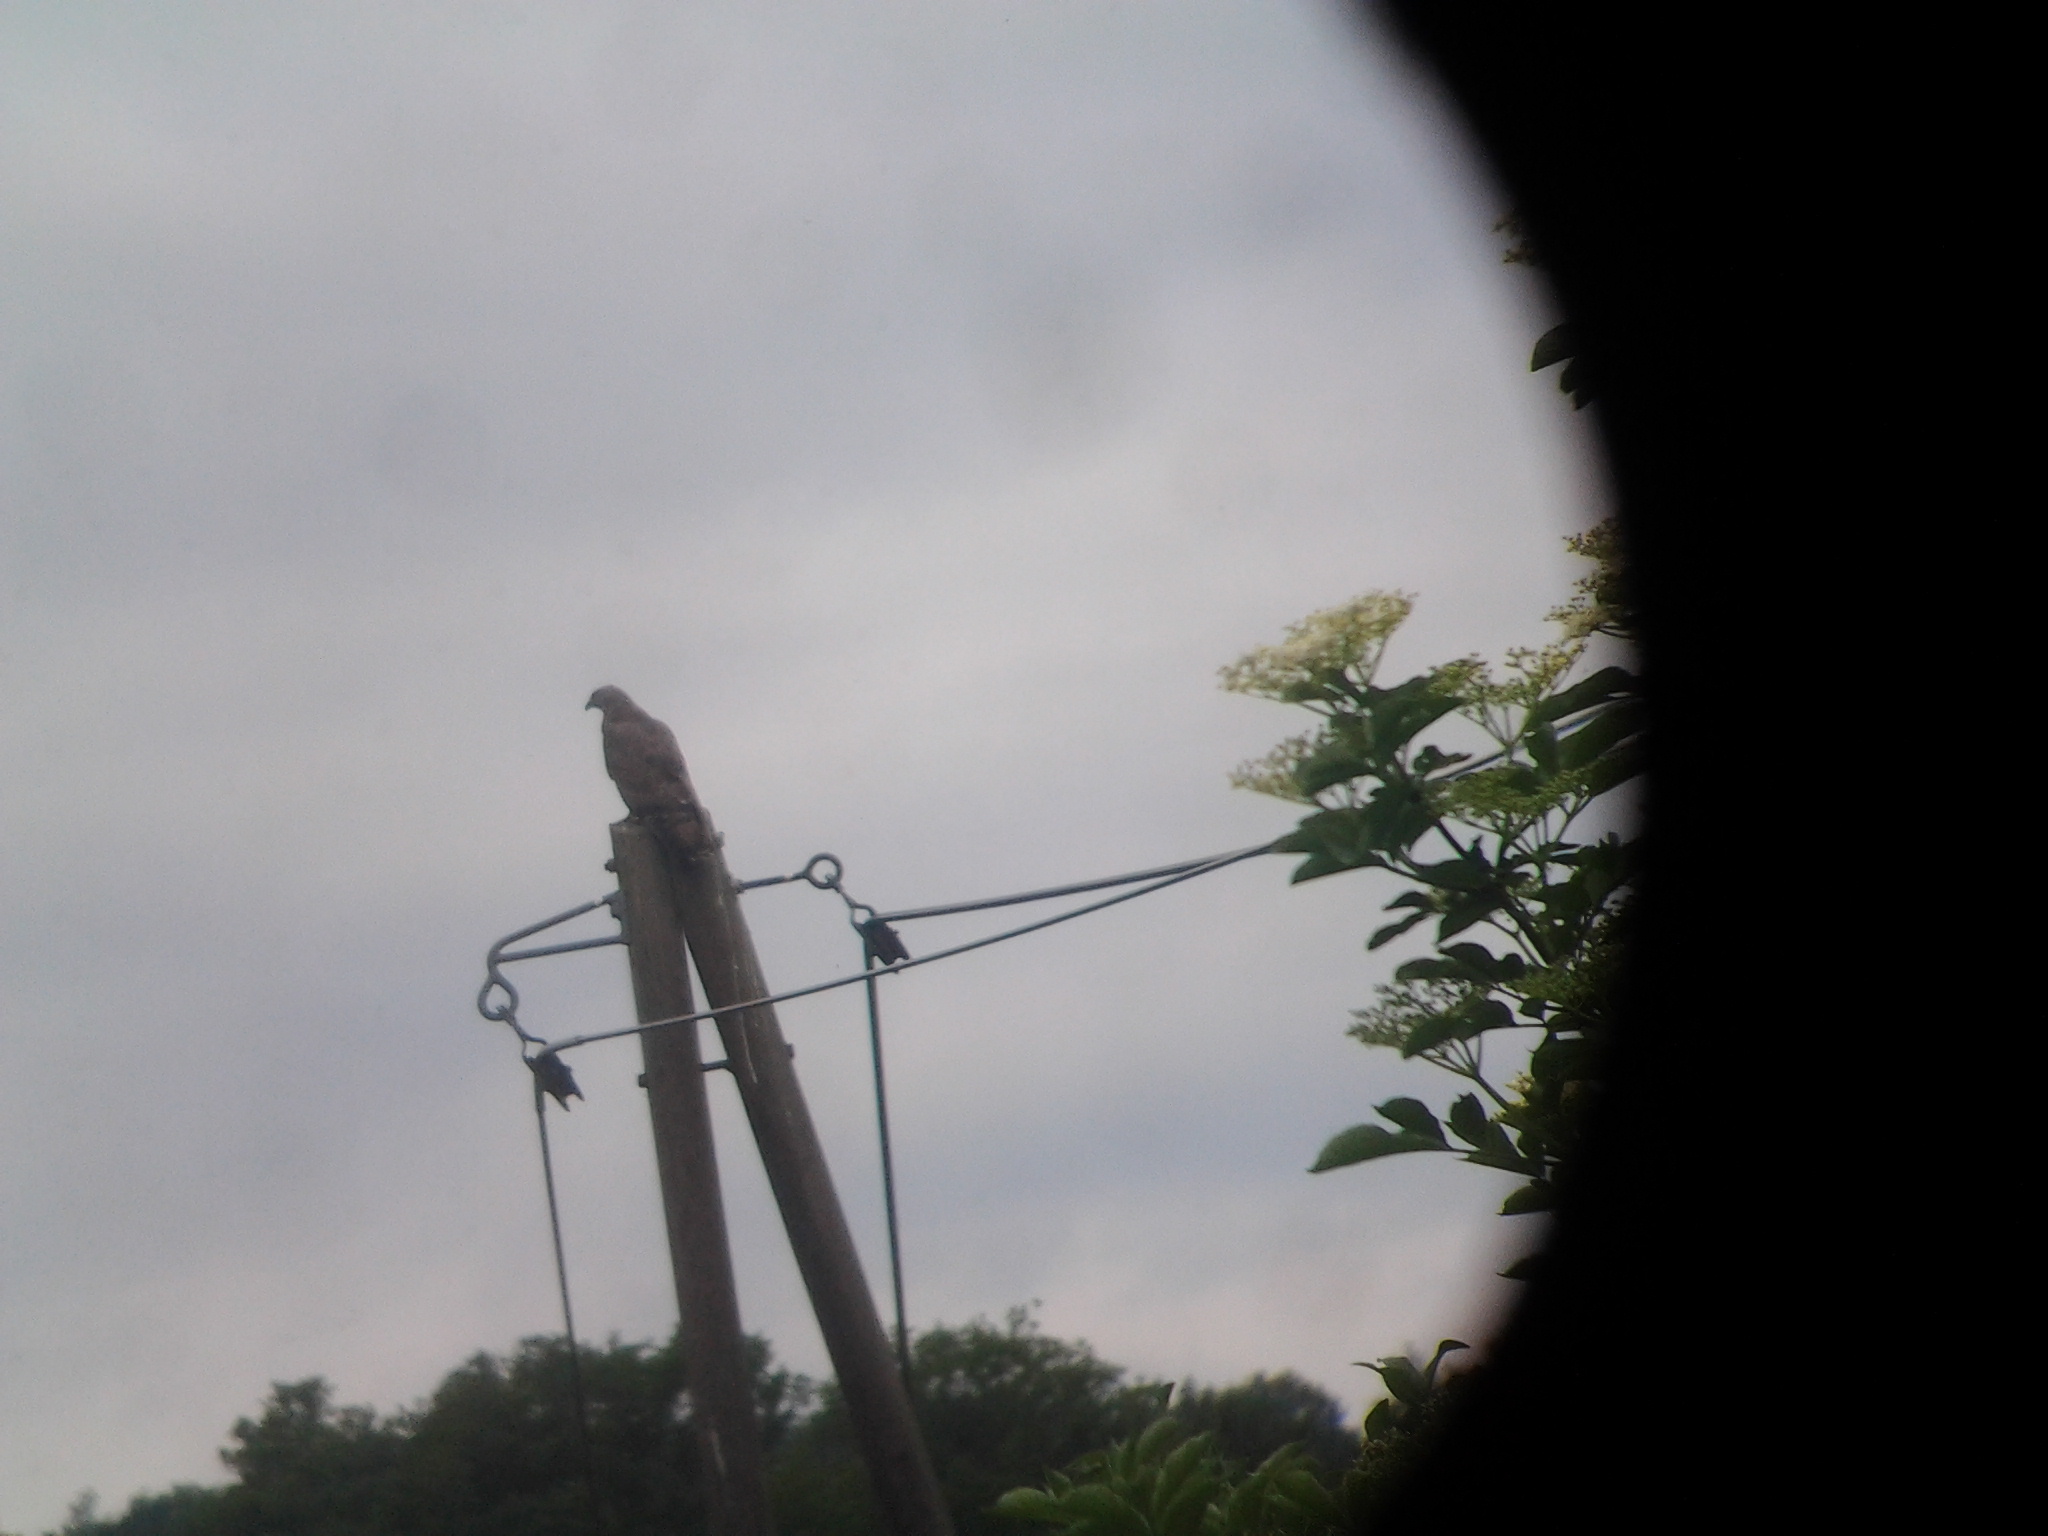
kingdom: Animalia
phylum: Chordata
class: Aves
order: Accipitriformes
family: Accipitridae
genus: Pernis
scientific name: Pernis apivorus
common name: European honey buzzard
